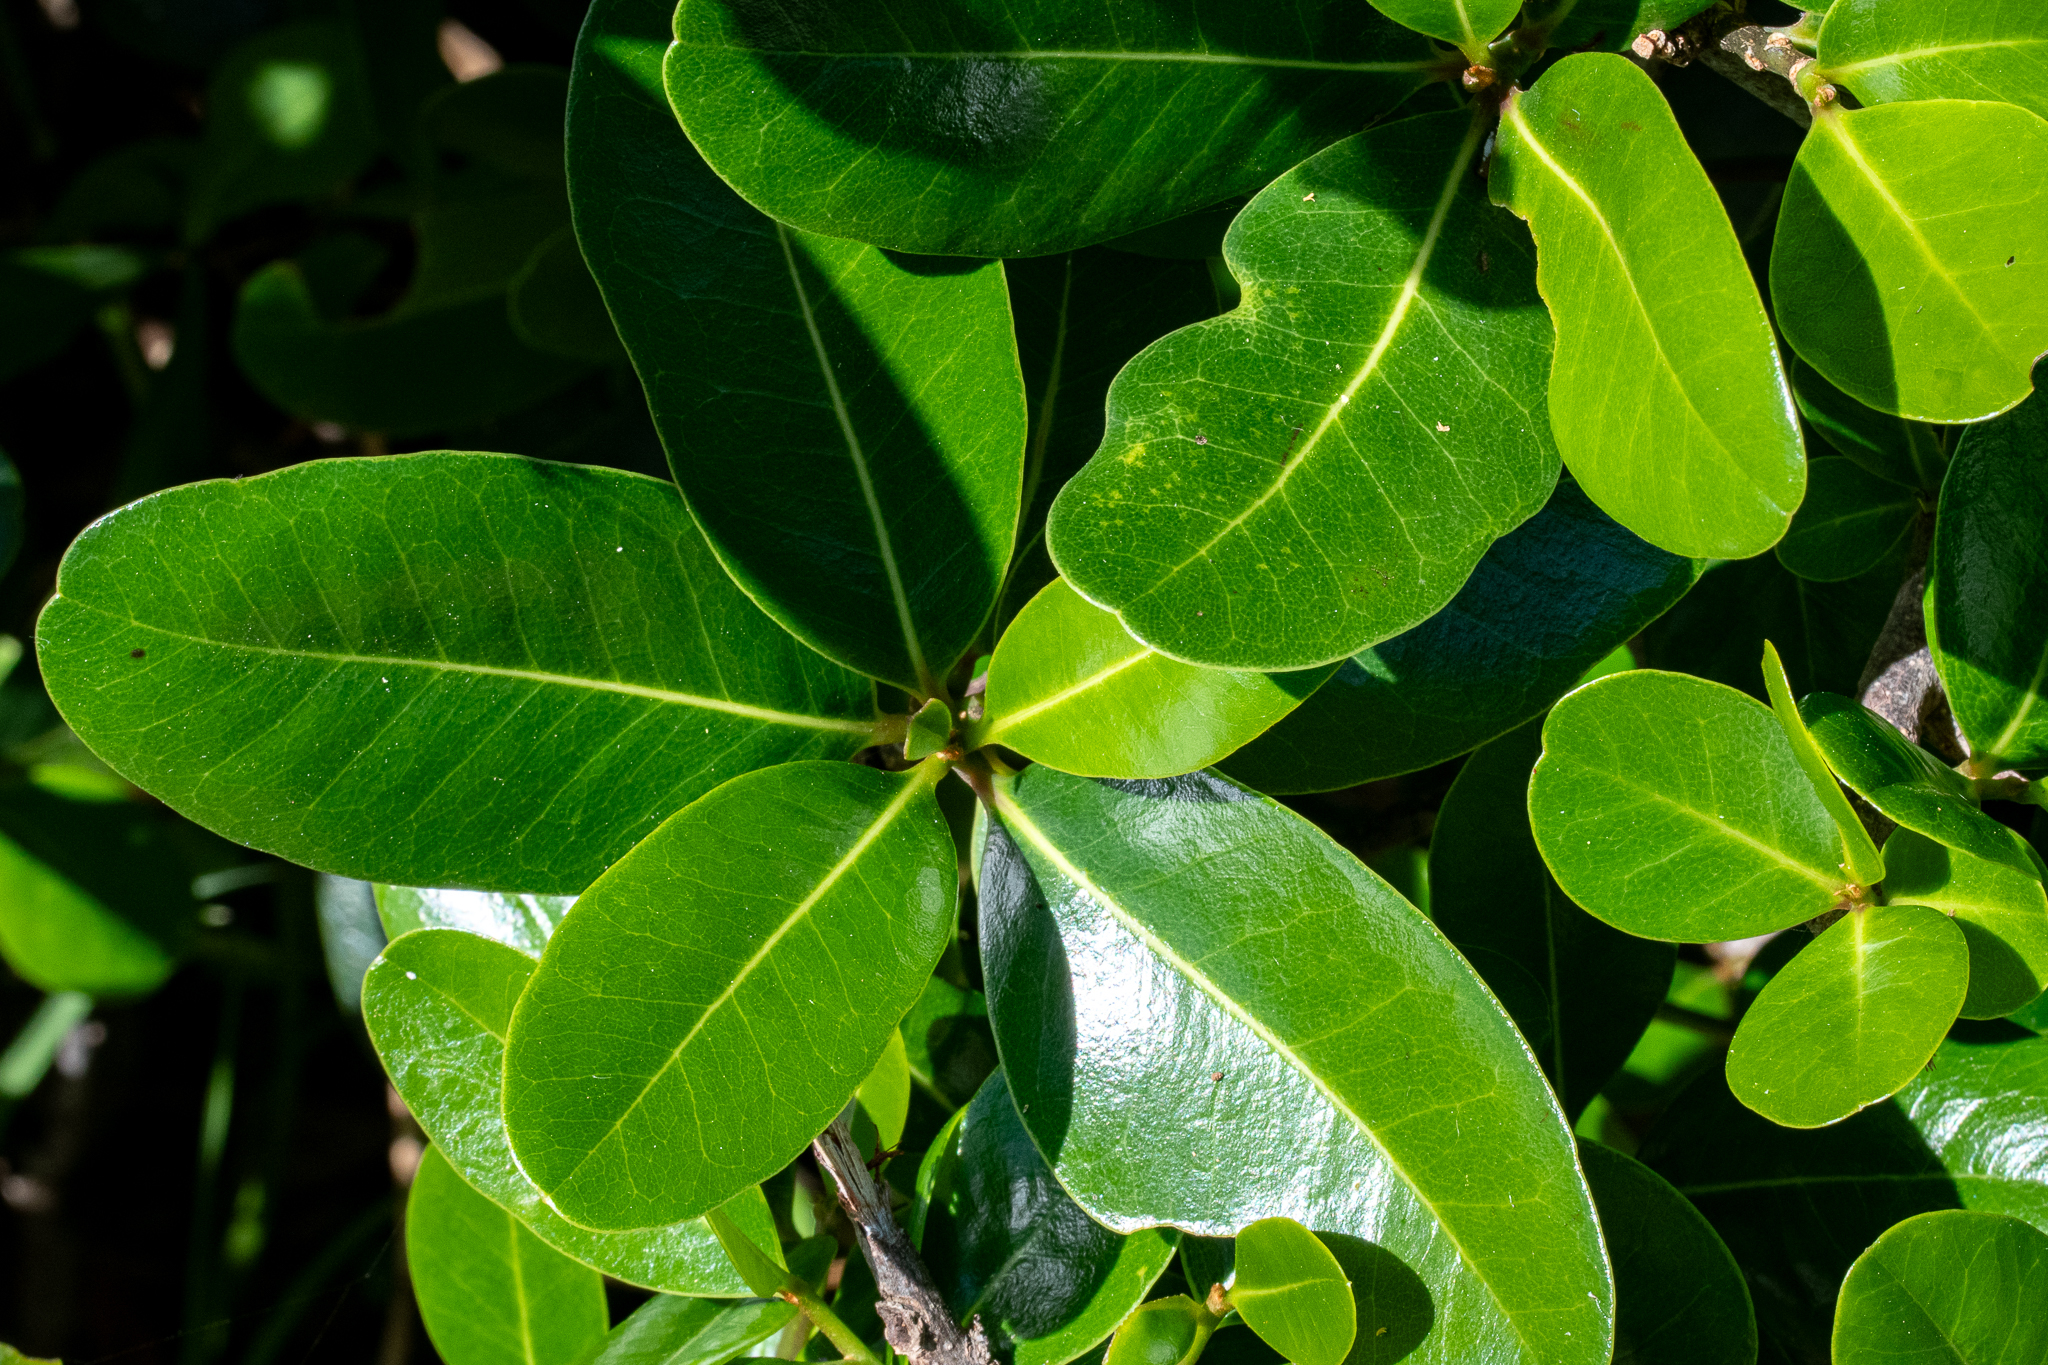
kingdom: Plantae
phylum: Tracheophyta
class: Magnoliopsida
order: Ericales
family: Sapotaceae
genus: Sideroxylon
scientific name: Sideroxylon inerme
